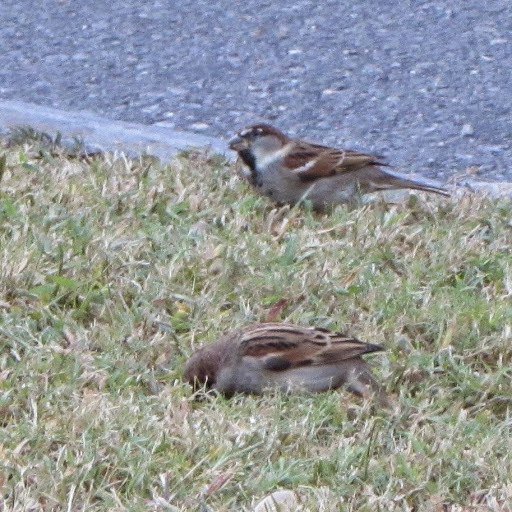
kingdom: Animalia
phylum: Chordata
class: Aves
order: Passeriformes
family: Passeridae
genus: Passer
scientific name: Passer domesticus
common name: House sparrow
